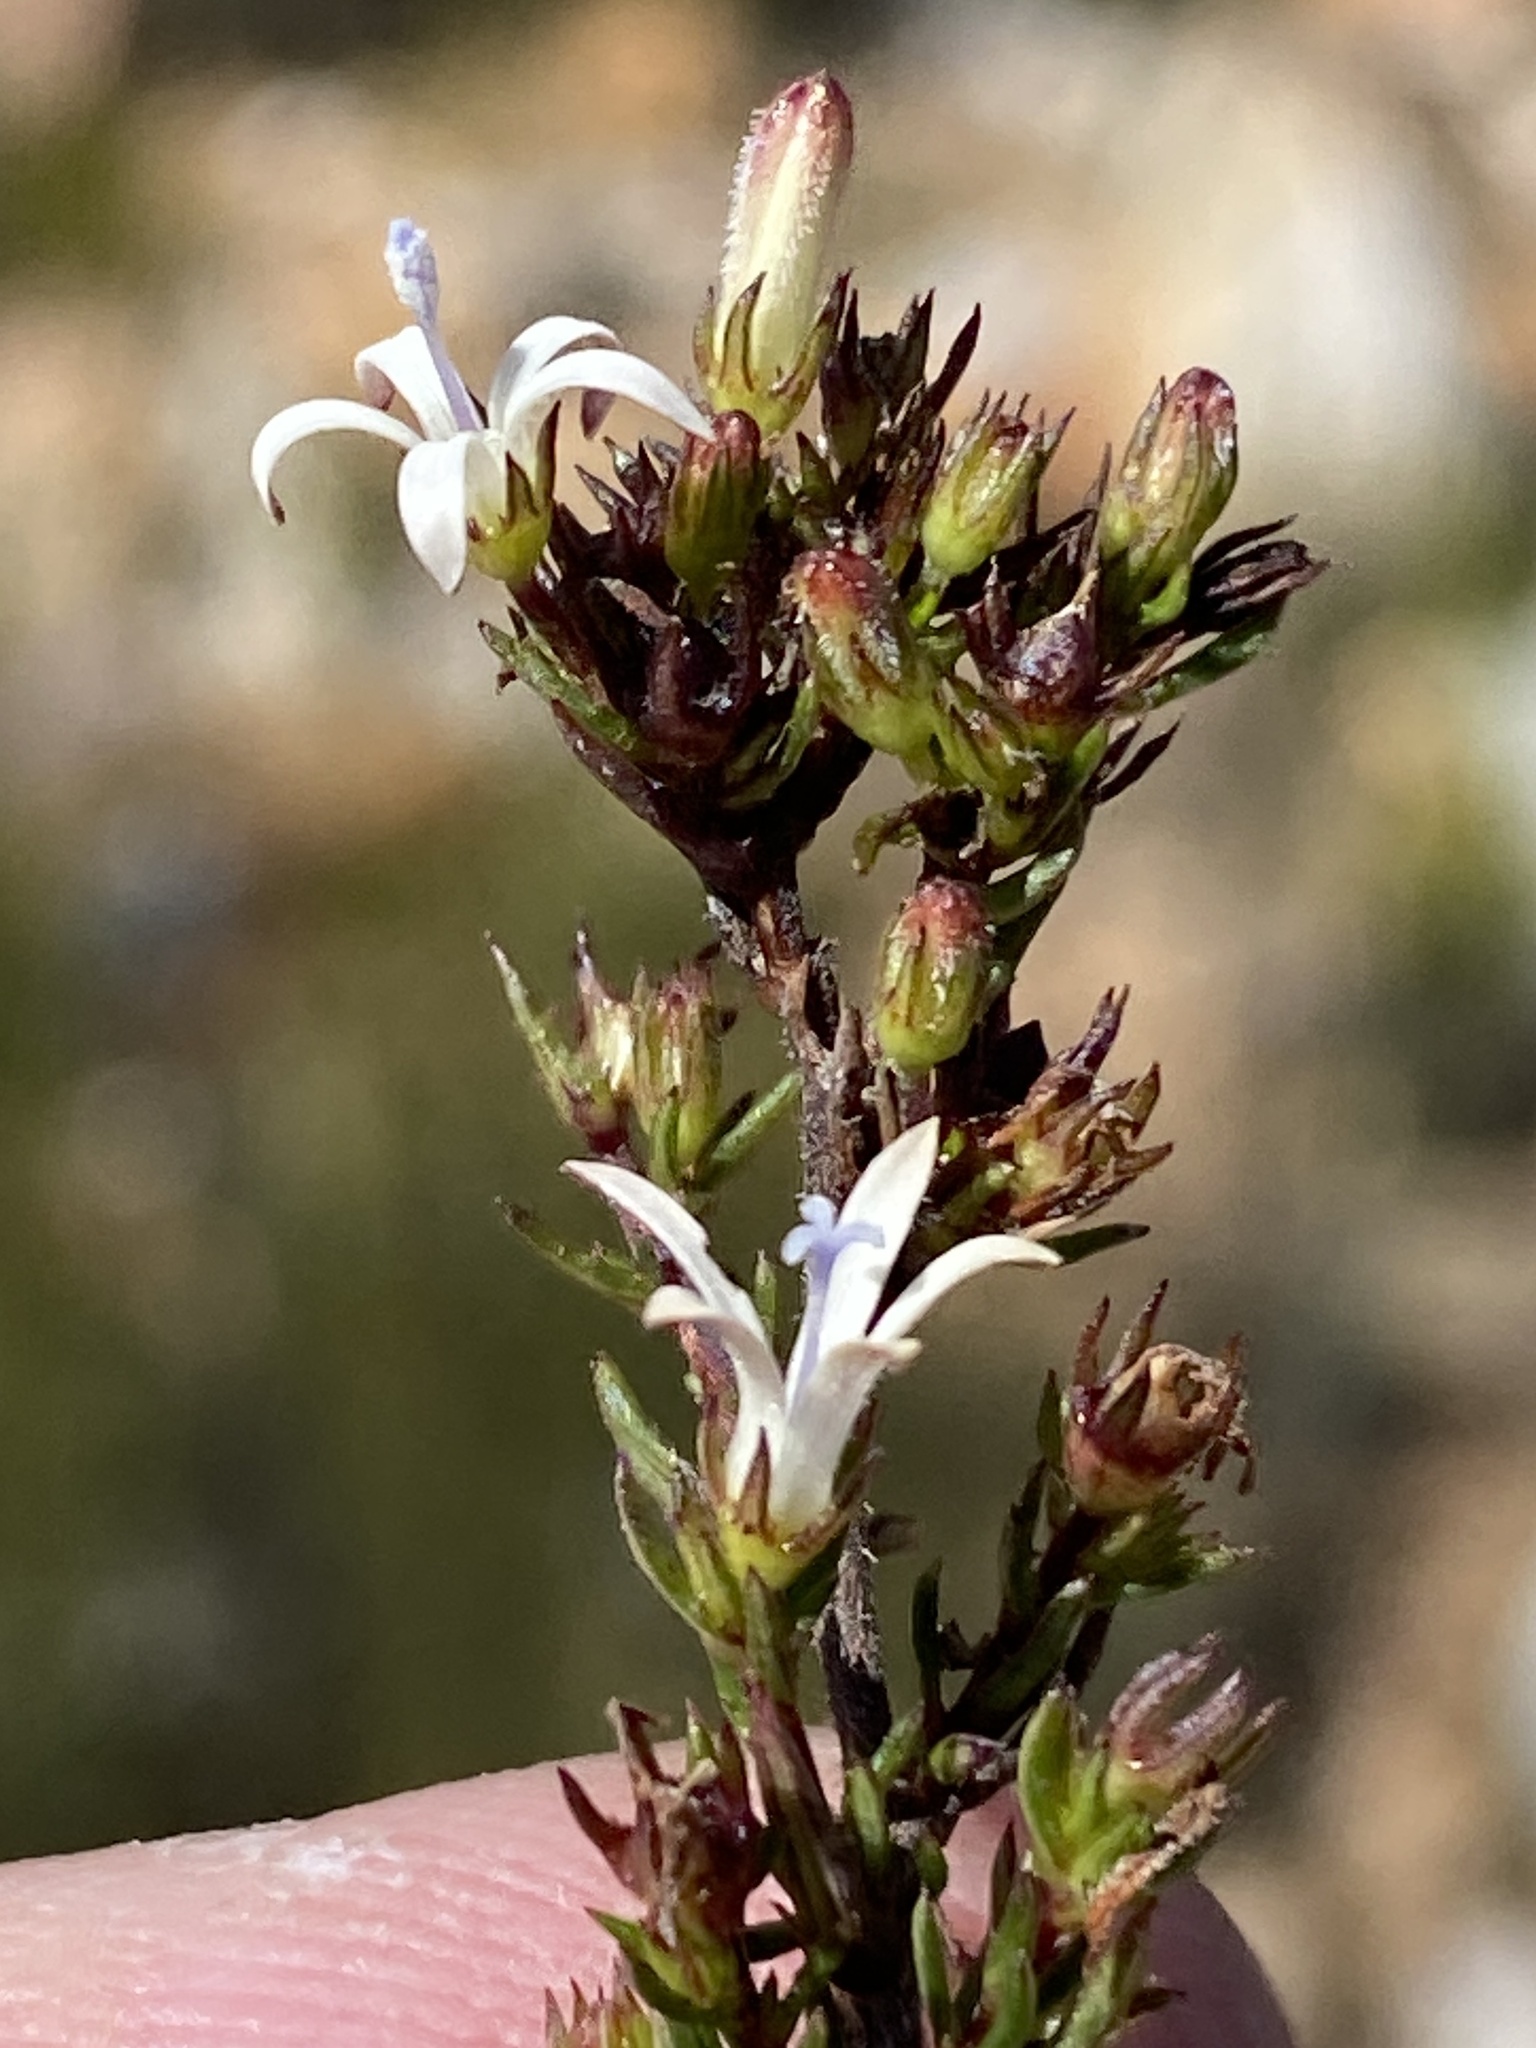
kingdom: Plantae
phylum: Tracheophyta
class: Magnoliopsida
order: Asterales
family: Campanulaceae
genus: Wahlenbergia
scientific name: Wahlenbergia rubens
